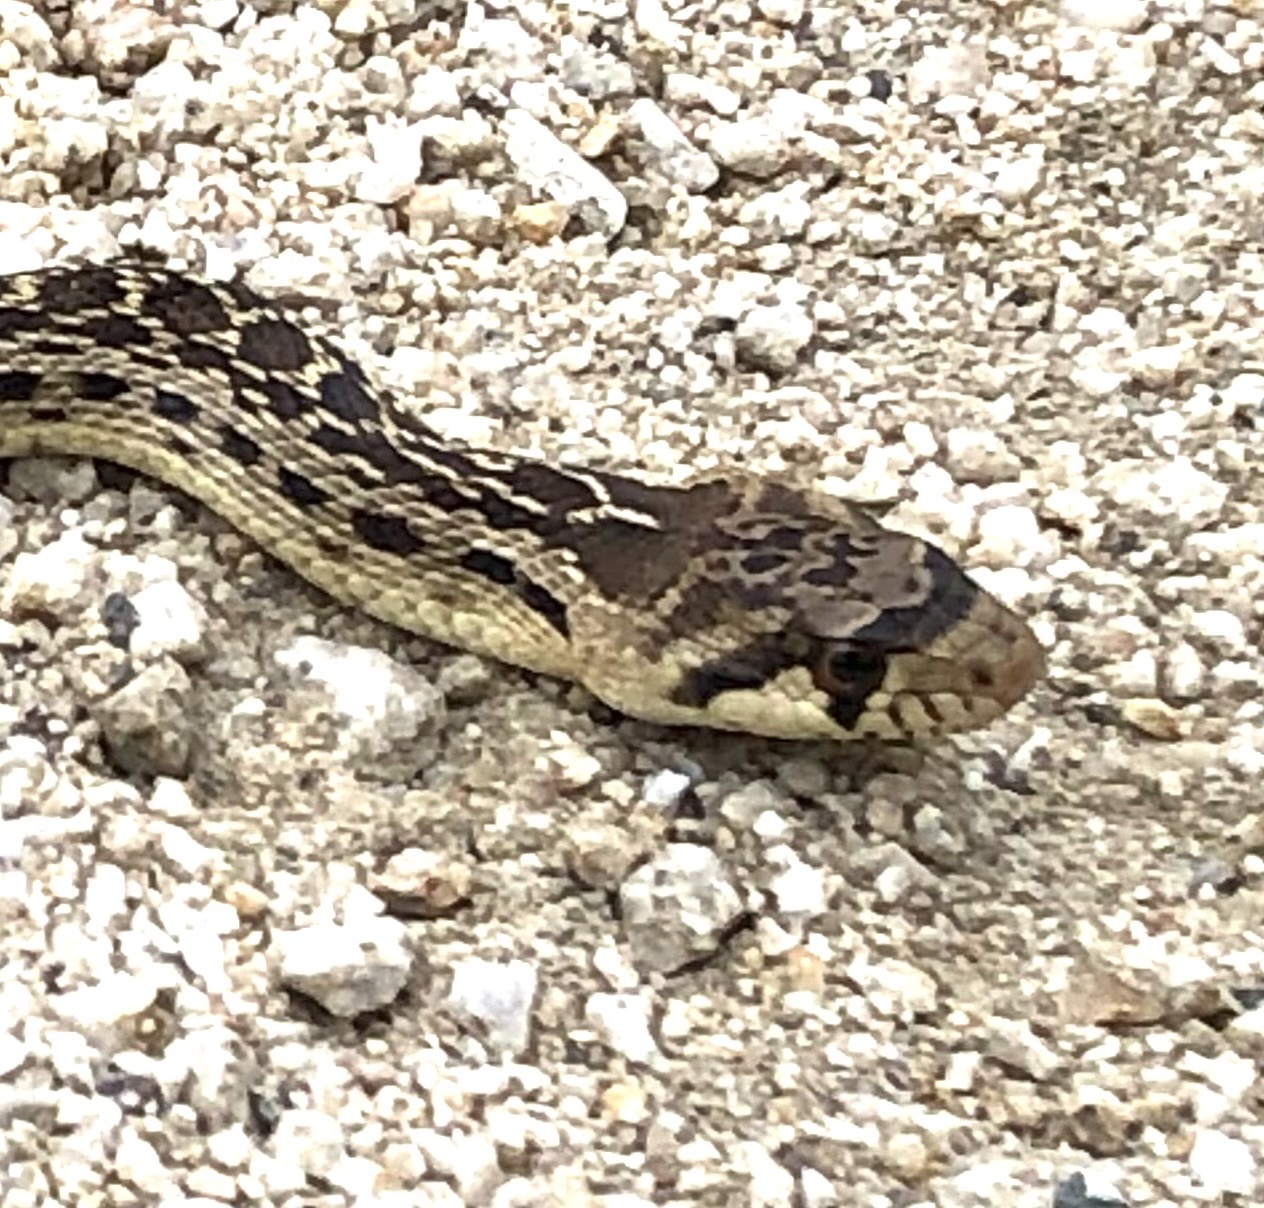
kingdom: Animalia
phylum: Chordata
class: Squamata
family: Colubridae
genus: Pituophis
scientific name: Pituophis catenifer
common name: Gopher snake
